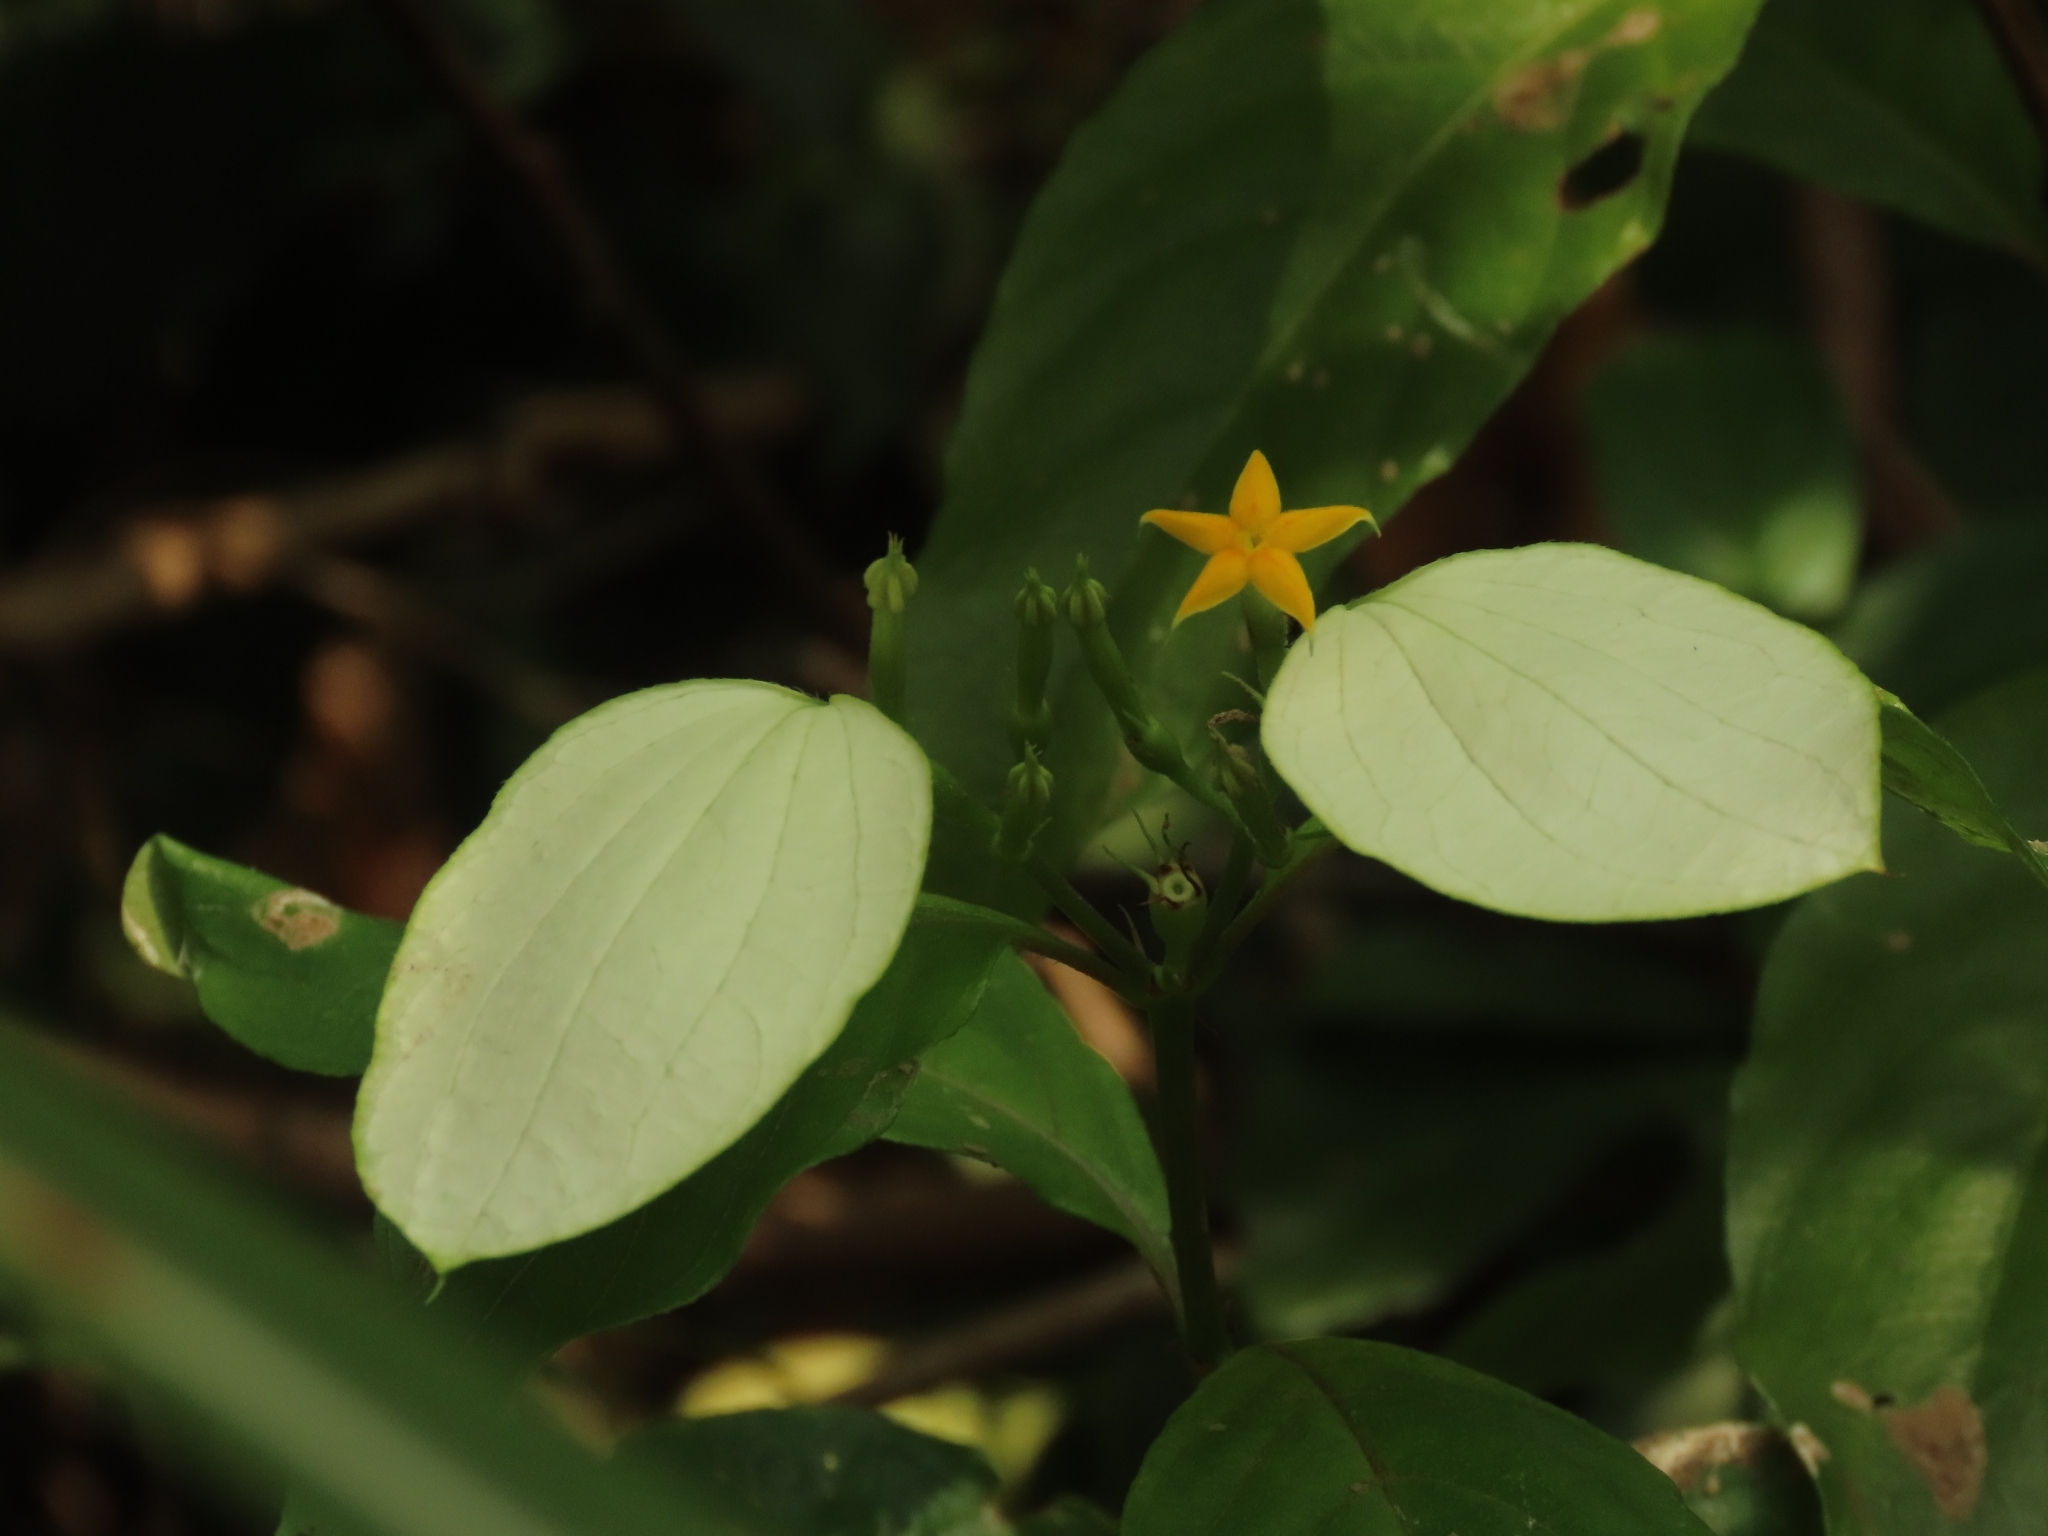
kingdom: Plantae
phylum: Tracheophyta
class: Magnoliopsida
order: Gentianales
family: Rubiaceae
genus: Mussaenda
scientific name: Mussaenda formosana
